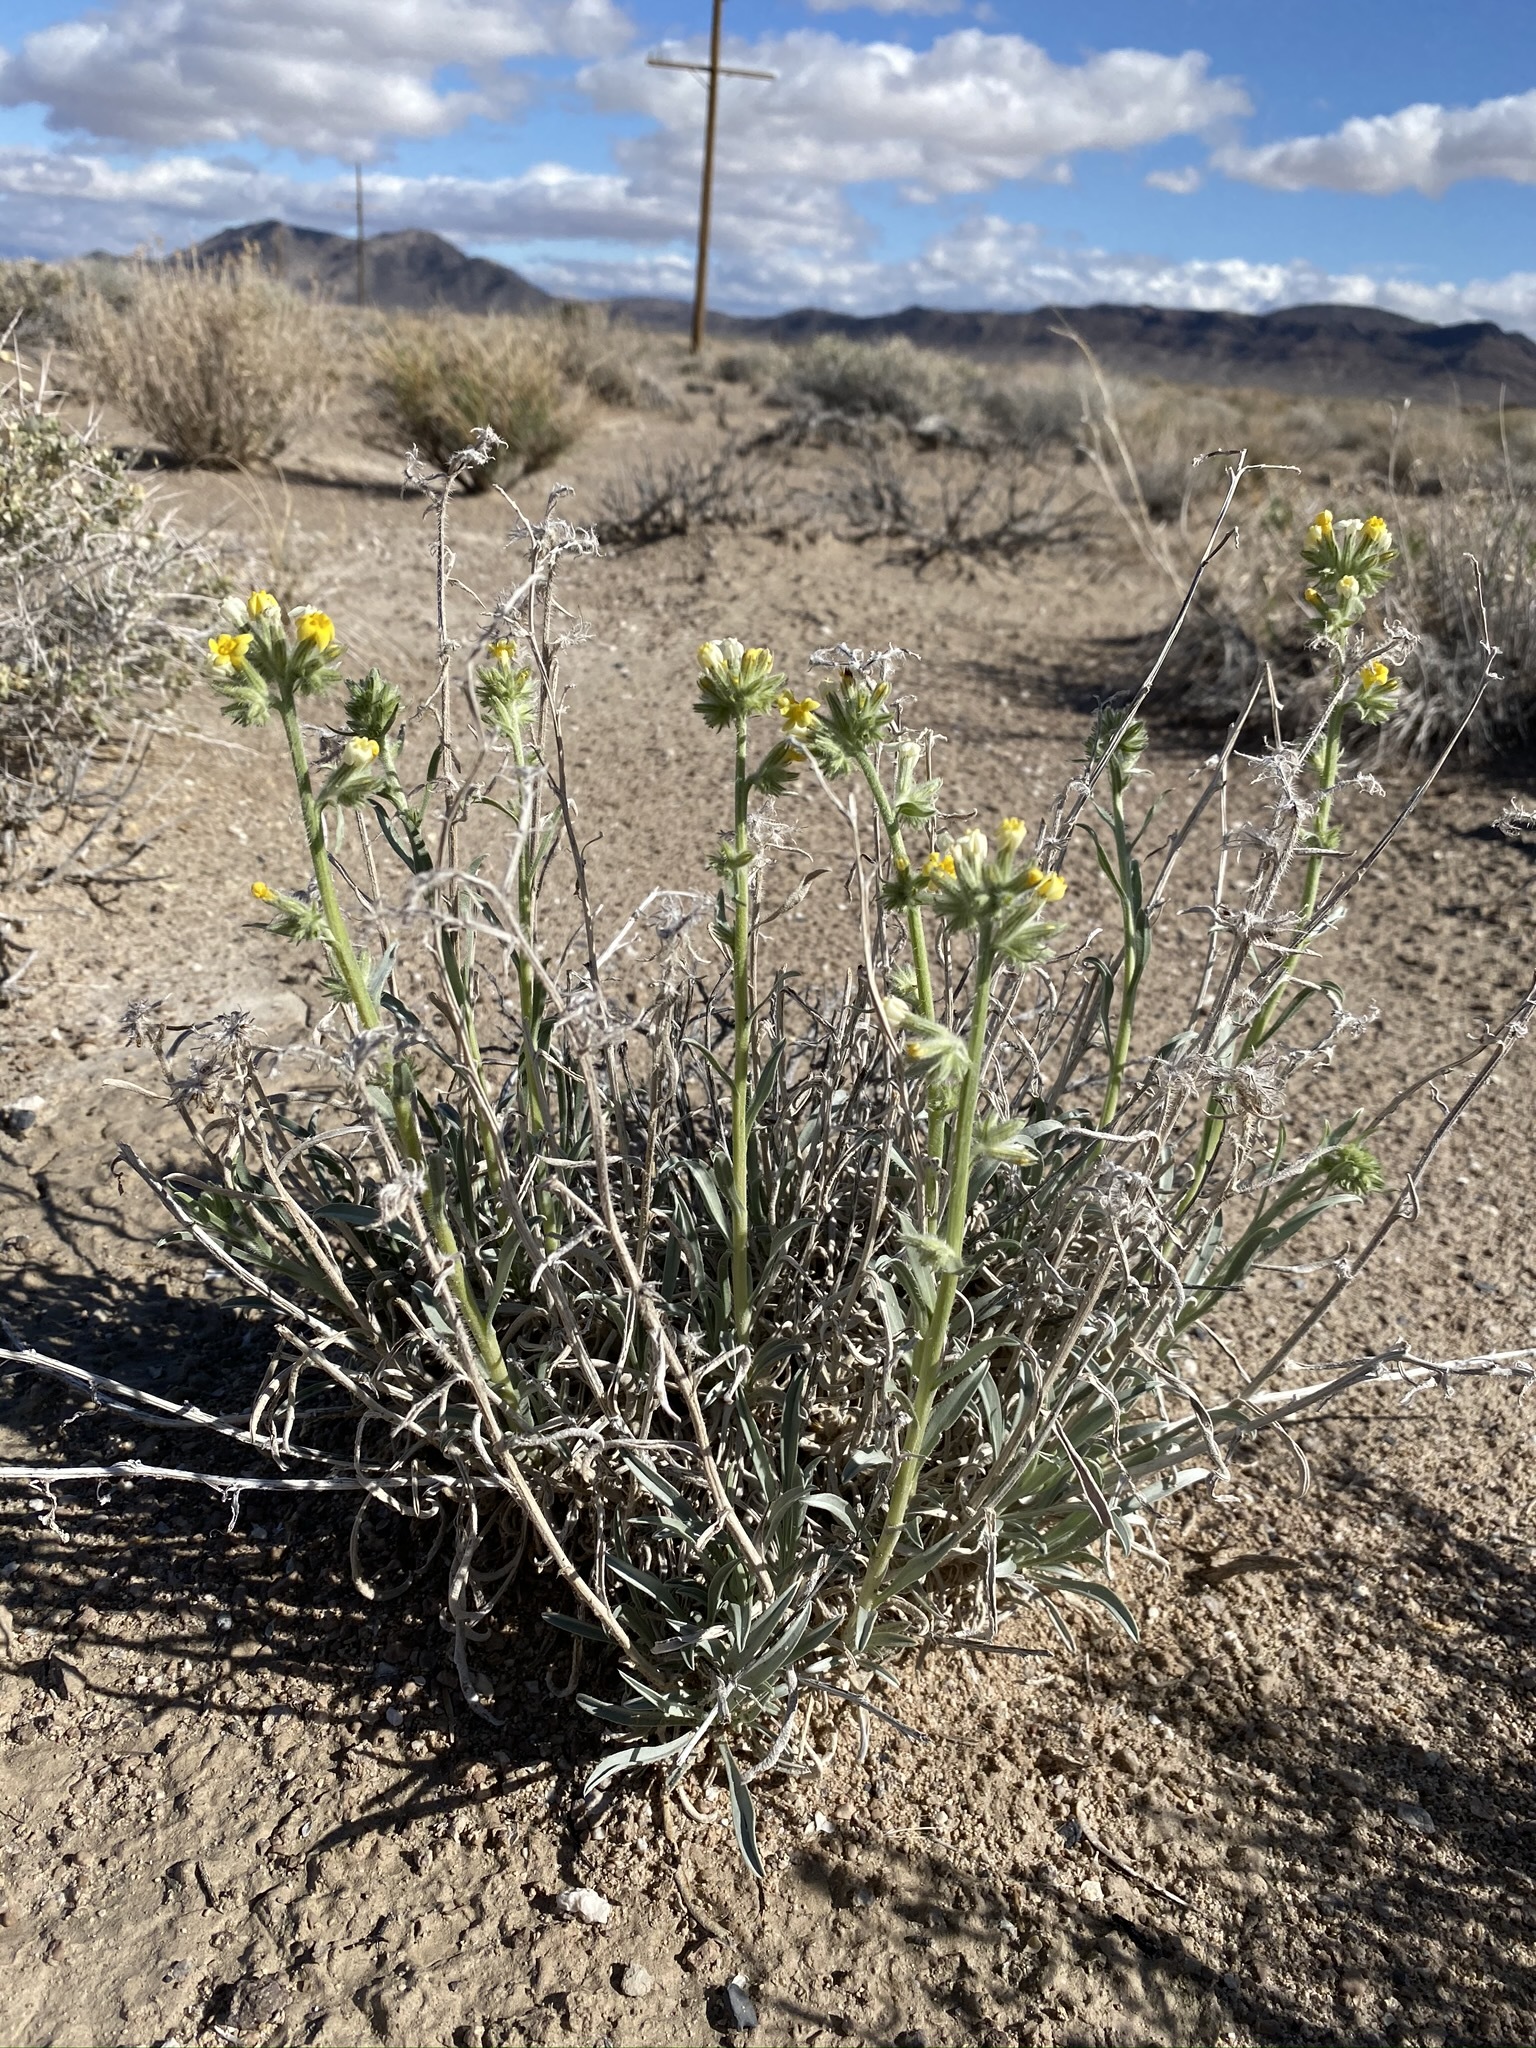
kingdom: Plantae
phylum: Tracheophyta
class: Magnoliopsida
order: Boraginales
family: Boraginaceae
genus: Oreocarya
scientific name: Oreocarya confertiflora
